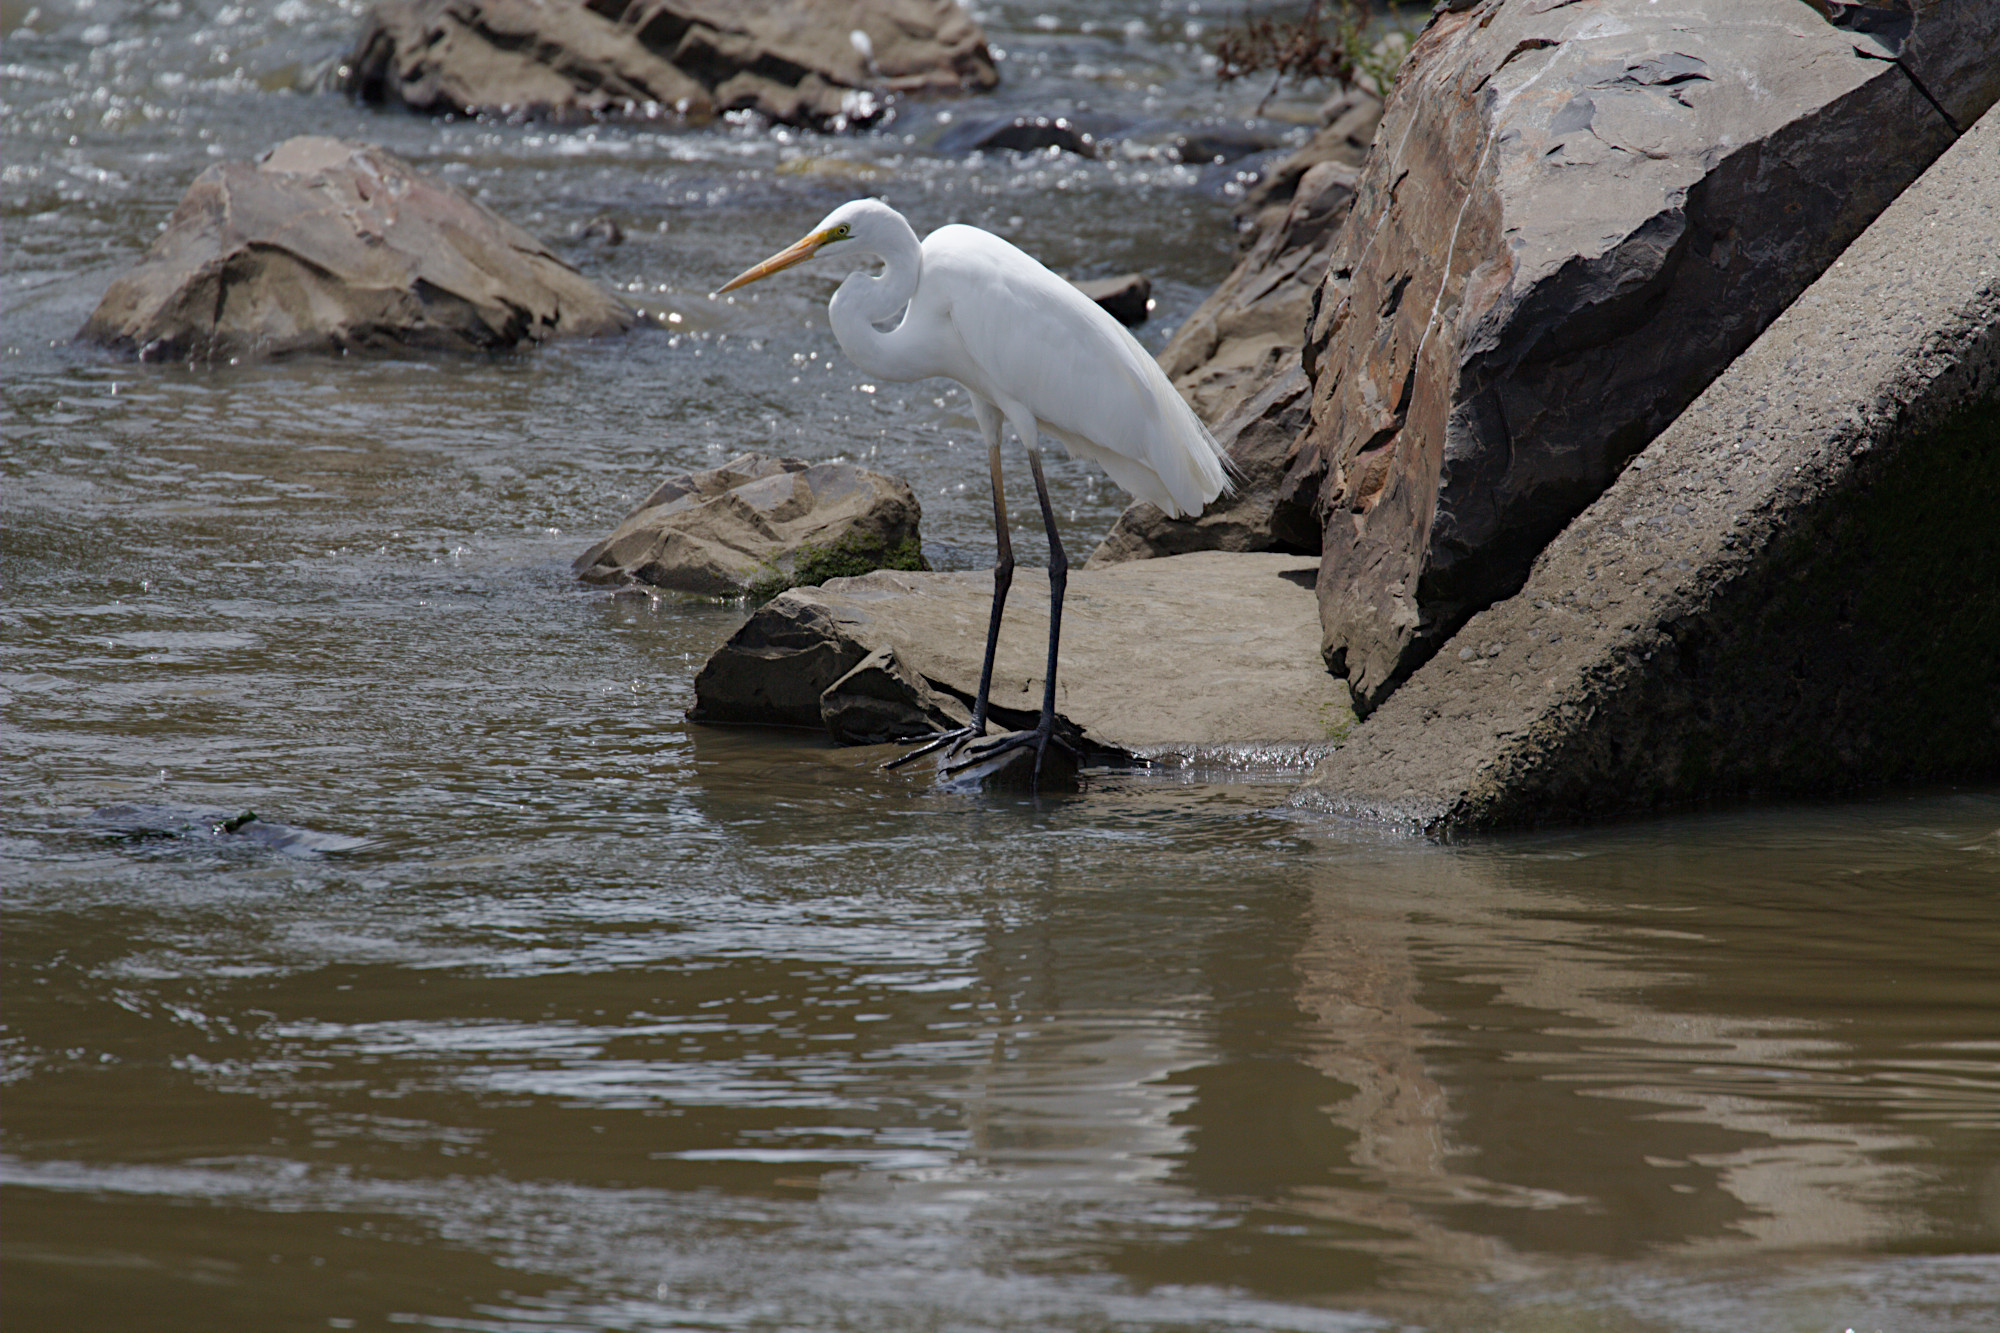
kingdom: Animalia
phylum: Chordata
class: Aves
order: Pelecaniformes
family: Ardeidae
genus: Ardea
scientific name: Ardea alba
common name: Great egret
